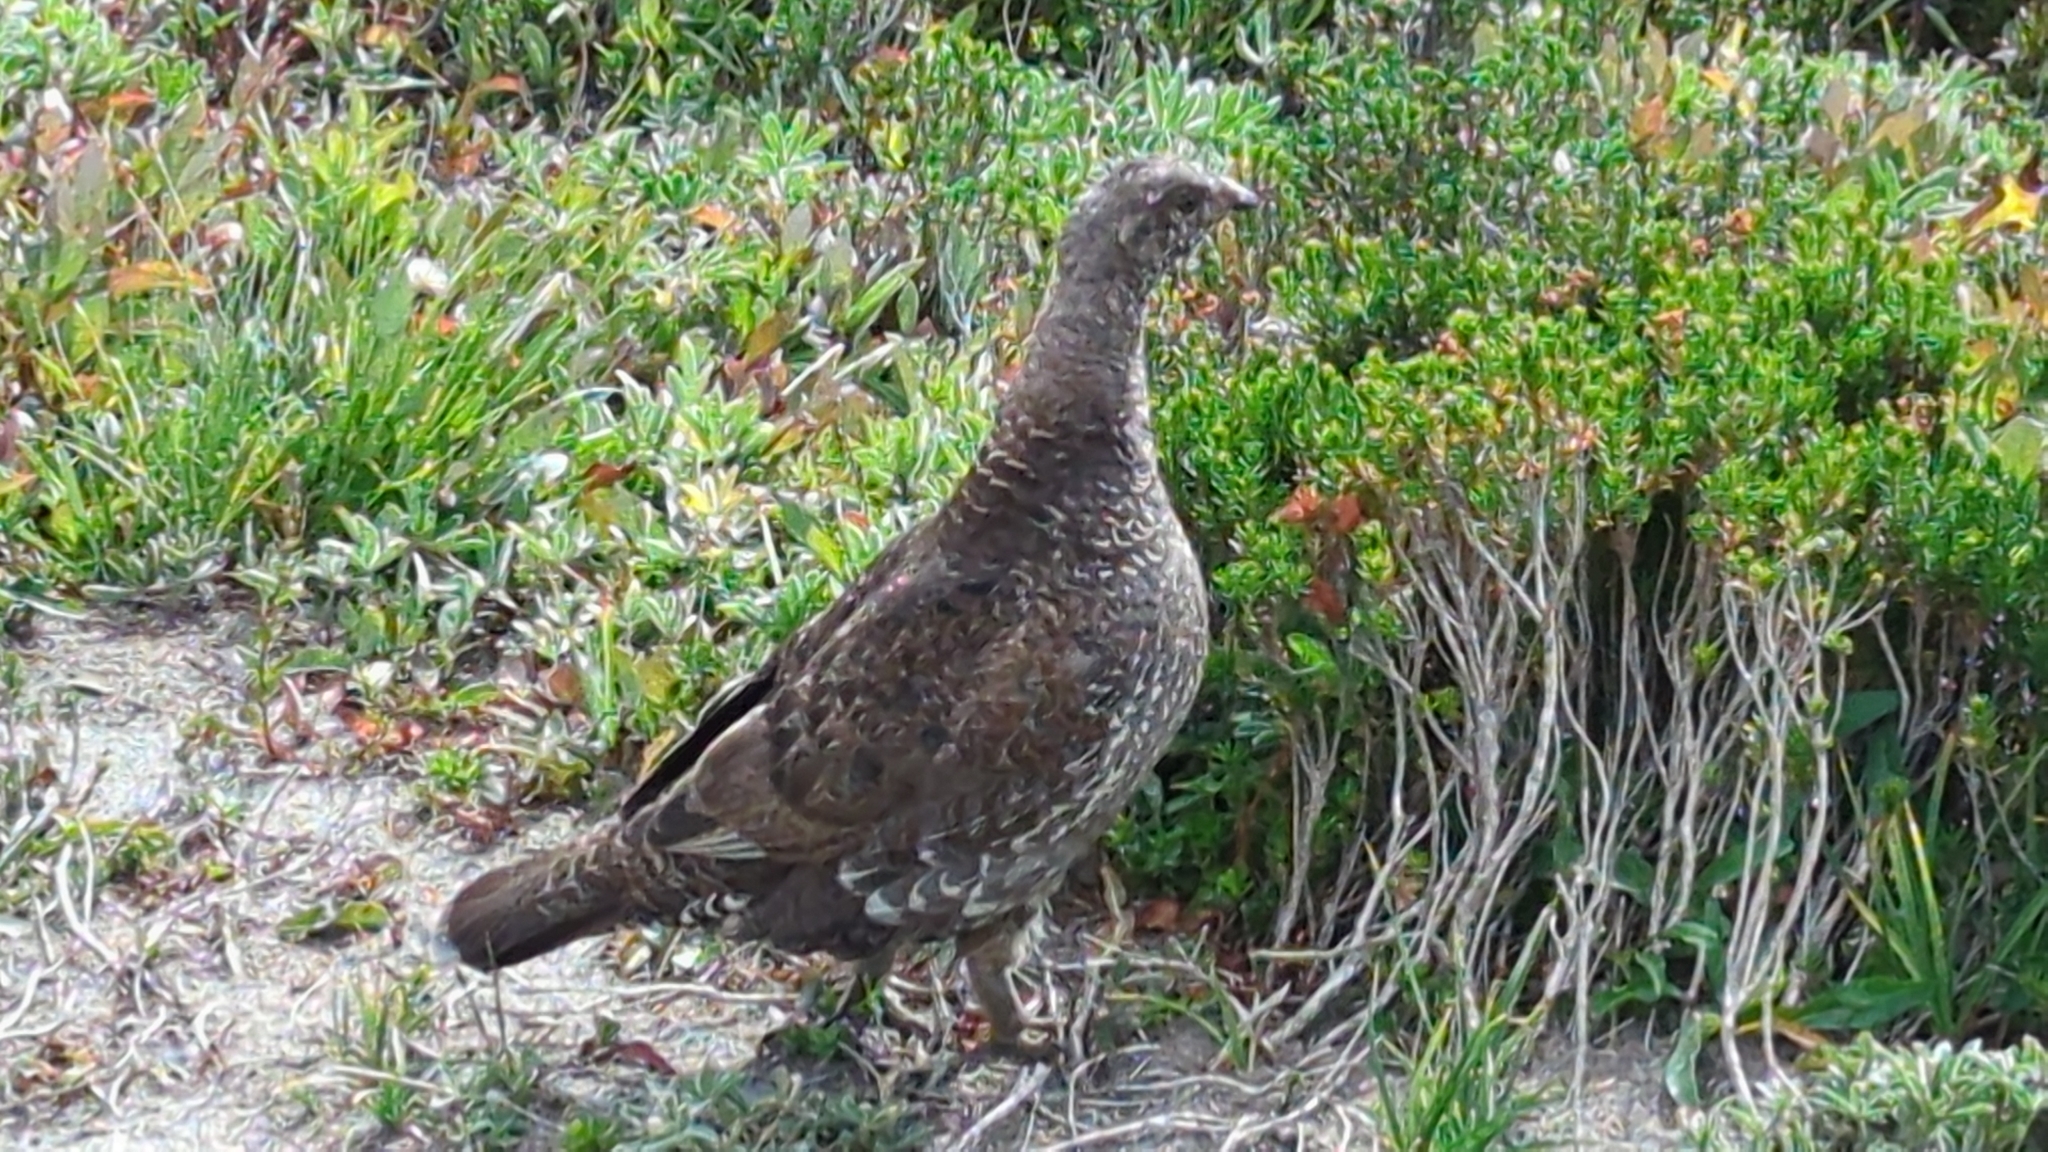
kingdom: Animalia
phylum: Chordata
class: Aves
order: Galliformes
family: Phasianidae
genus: Dendragapus
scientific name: Dendragapus fuliginosus
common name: Sooty grouse
